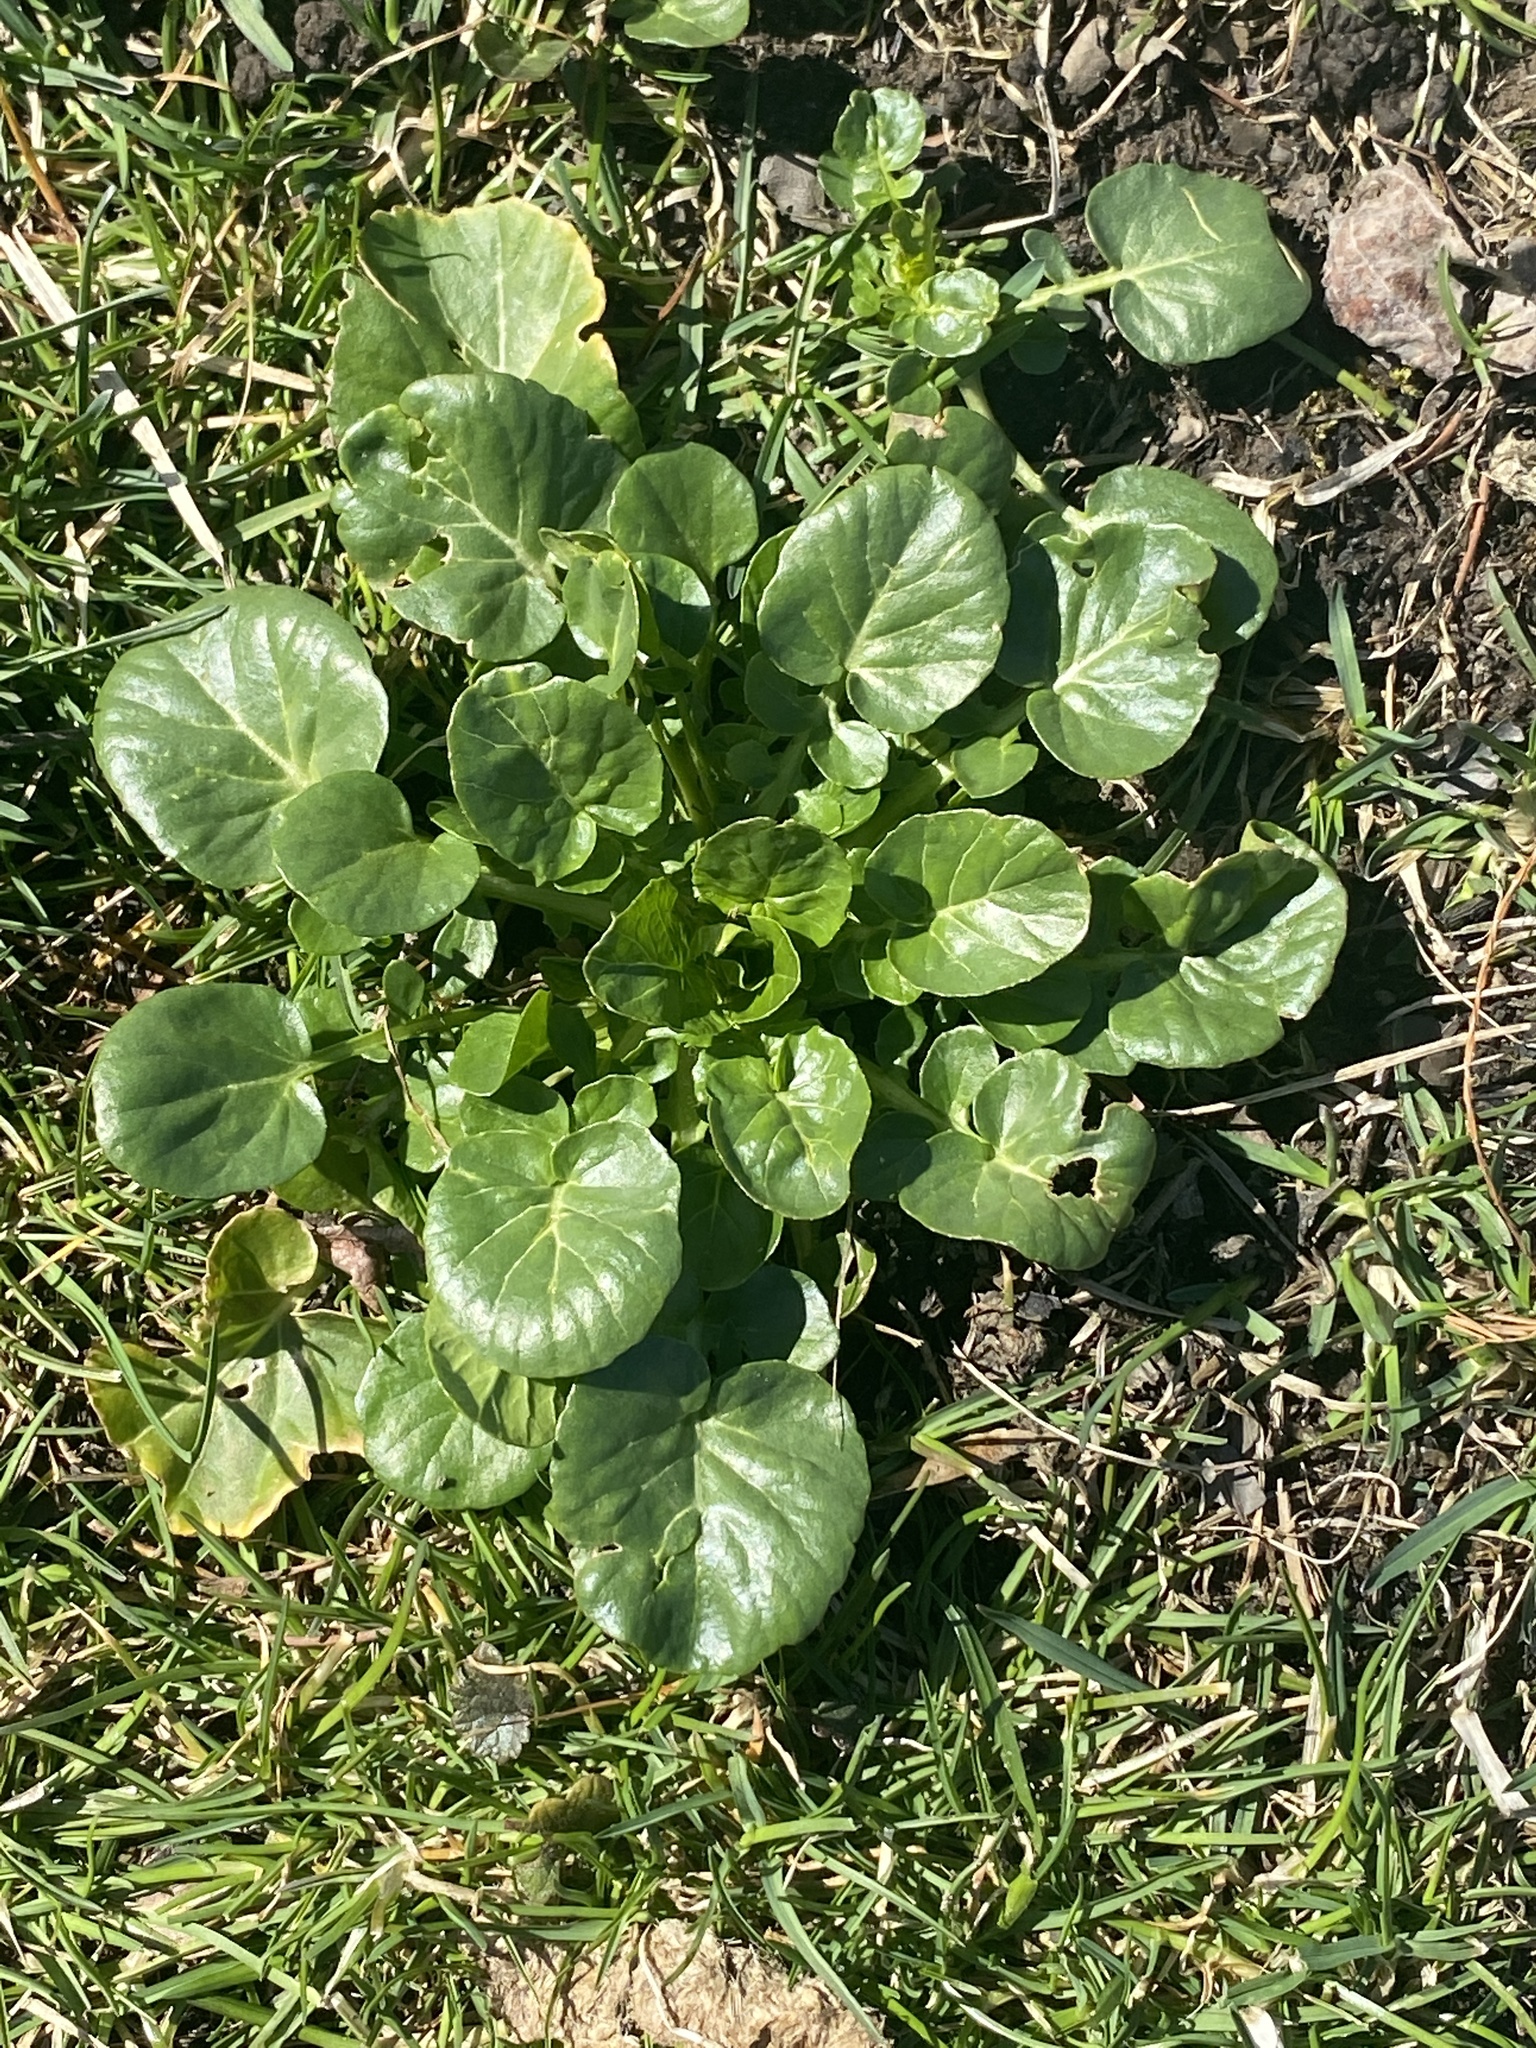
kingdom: Plantae
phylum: Tracheophyta
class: Magnoliopsida
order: Brassicales
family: Brassicaceae
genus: Barbarea
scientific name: Barbarea vulgaris
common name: Cressy-greens
